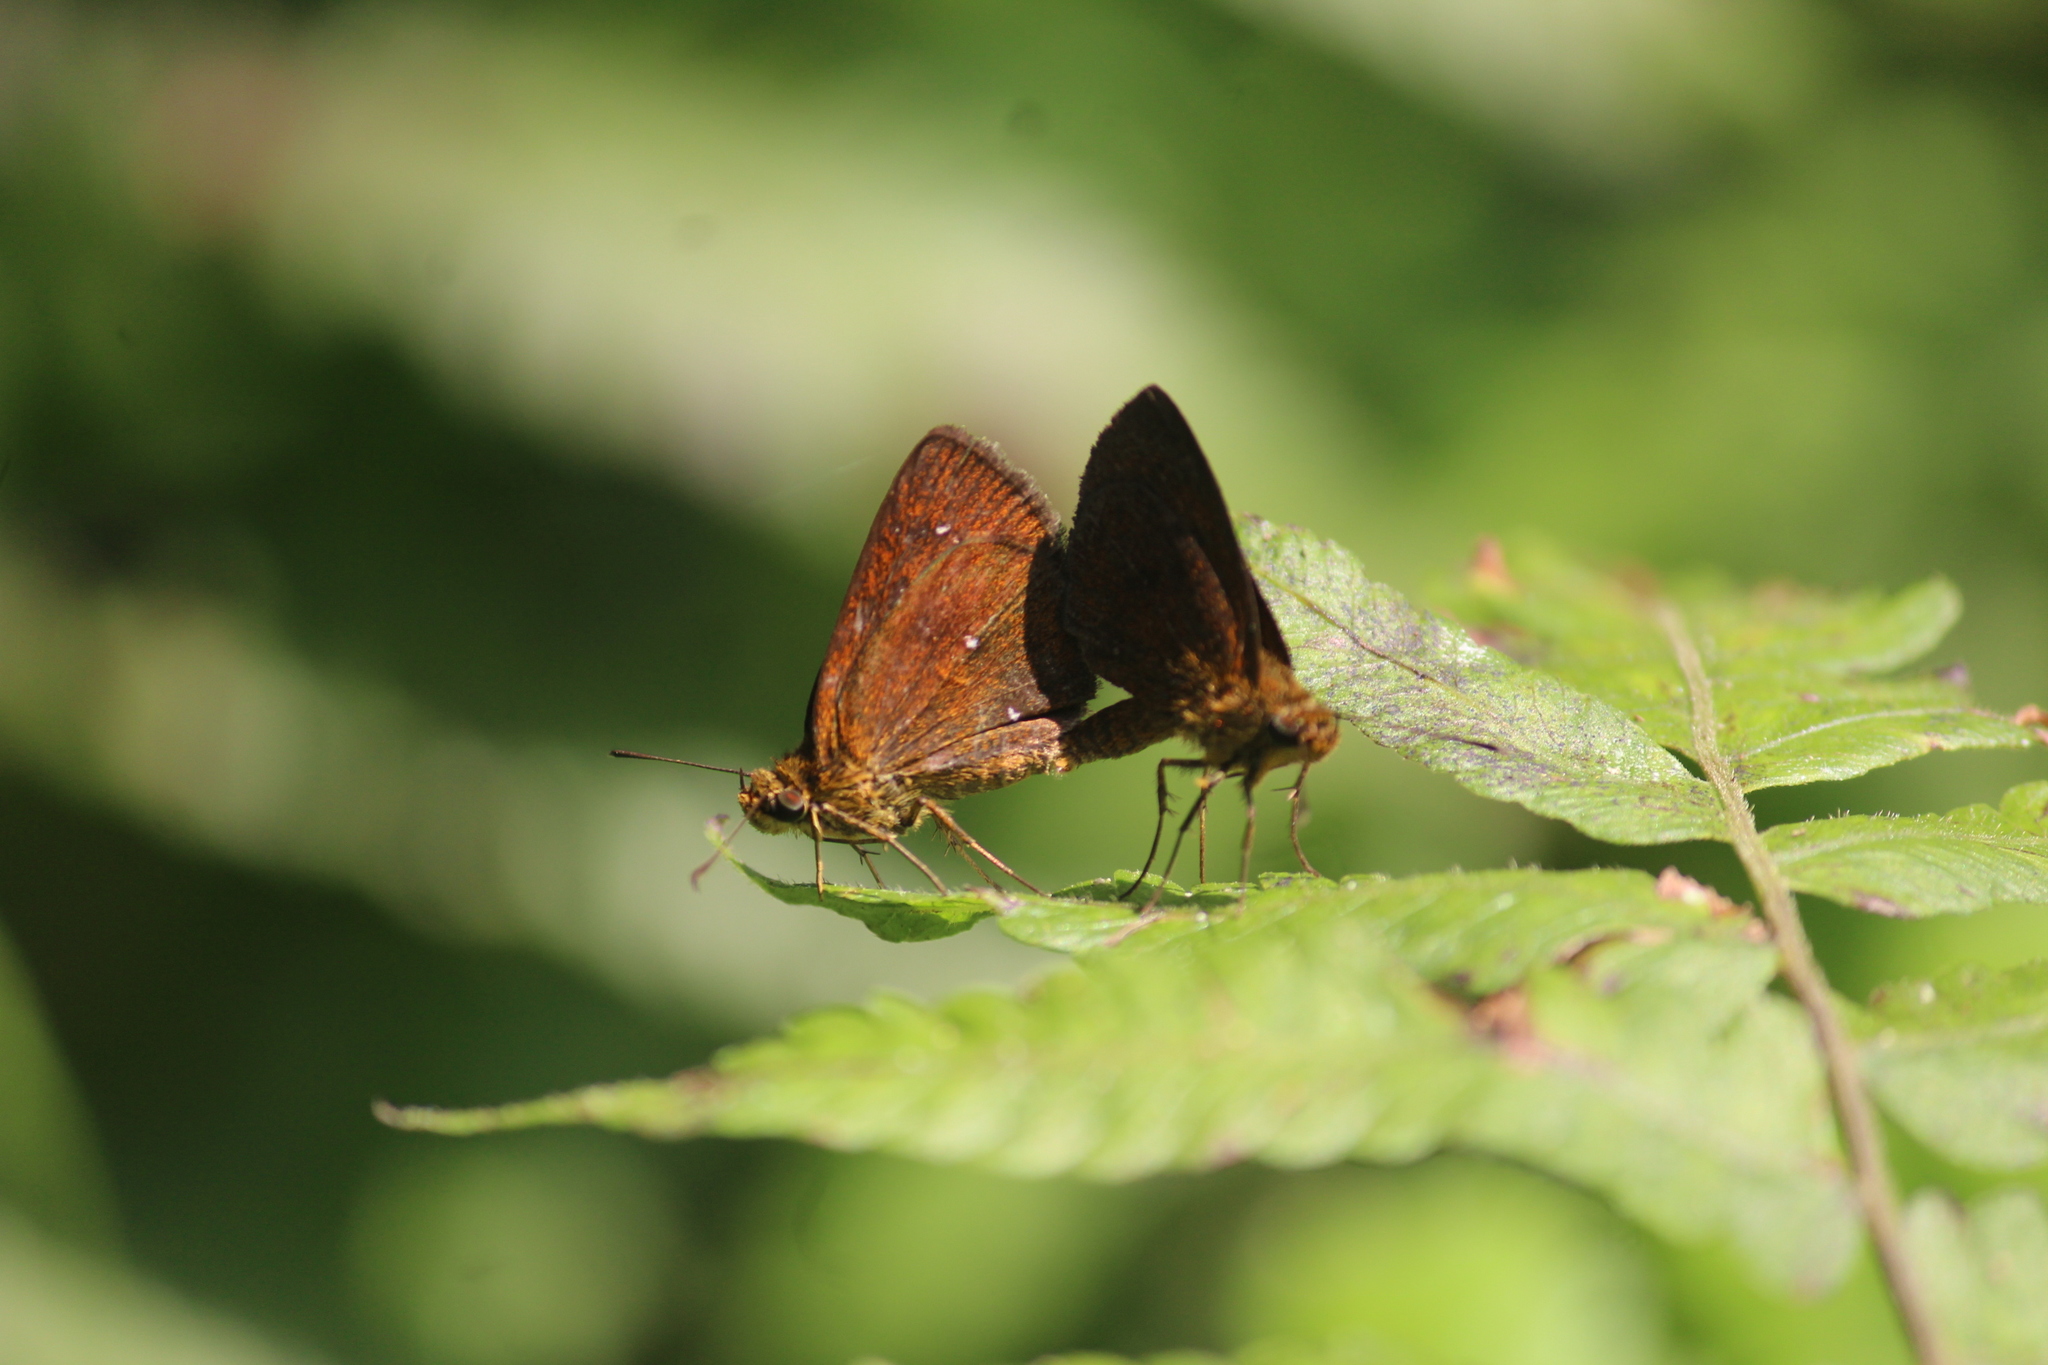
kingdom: Animalia
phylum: Arthropoda
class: Insecta
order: Lepidoptera
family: Hesperiidae
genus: Iambrix
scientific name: Iambrix salsala
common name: Chestnut bob
